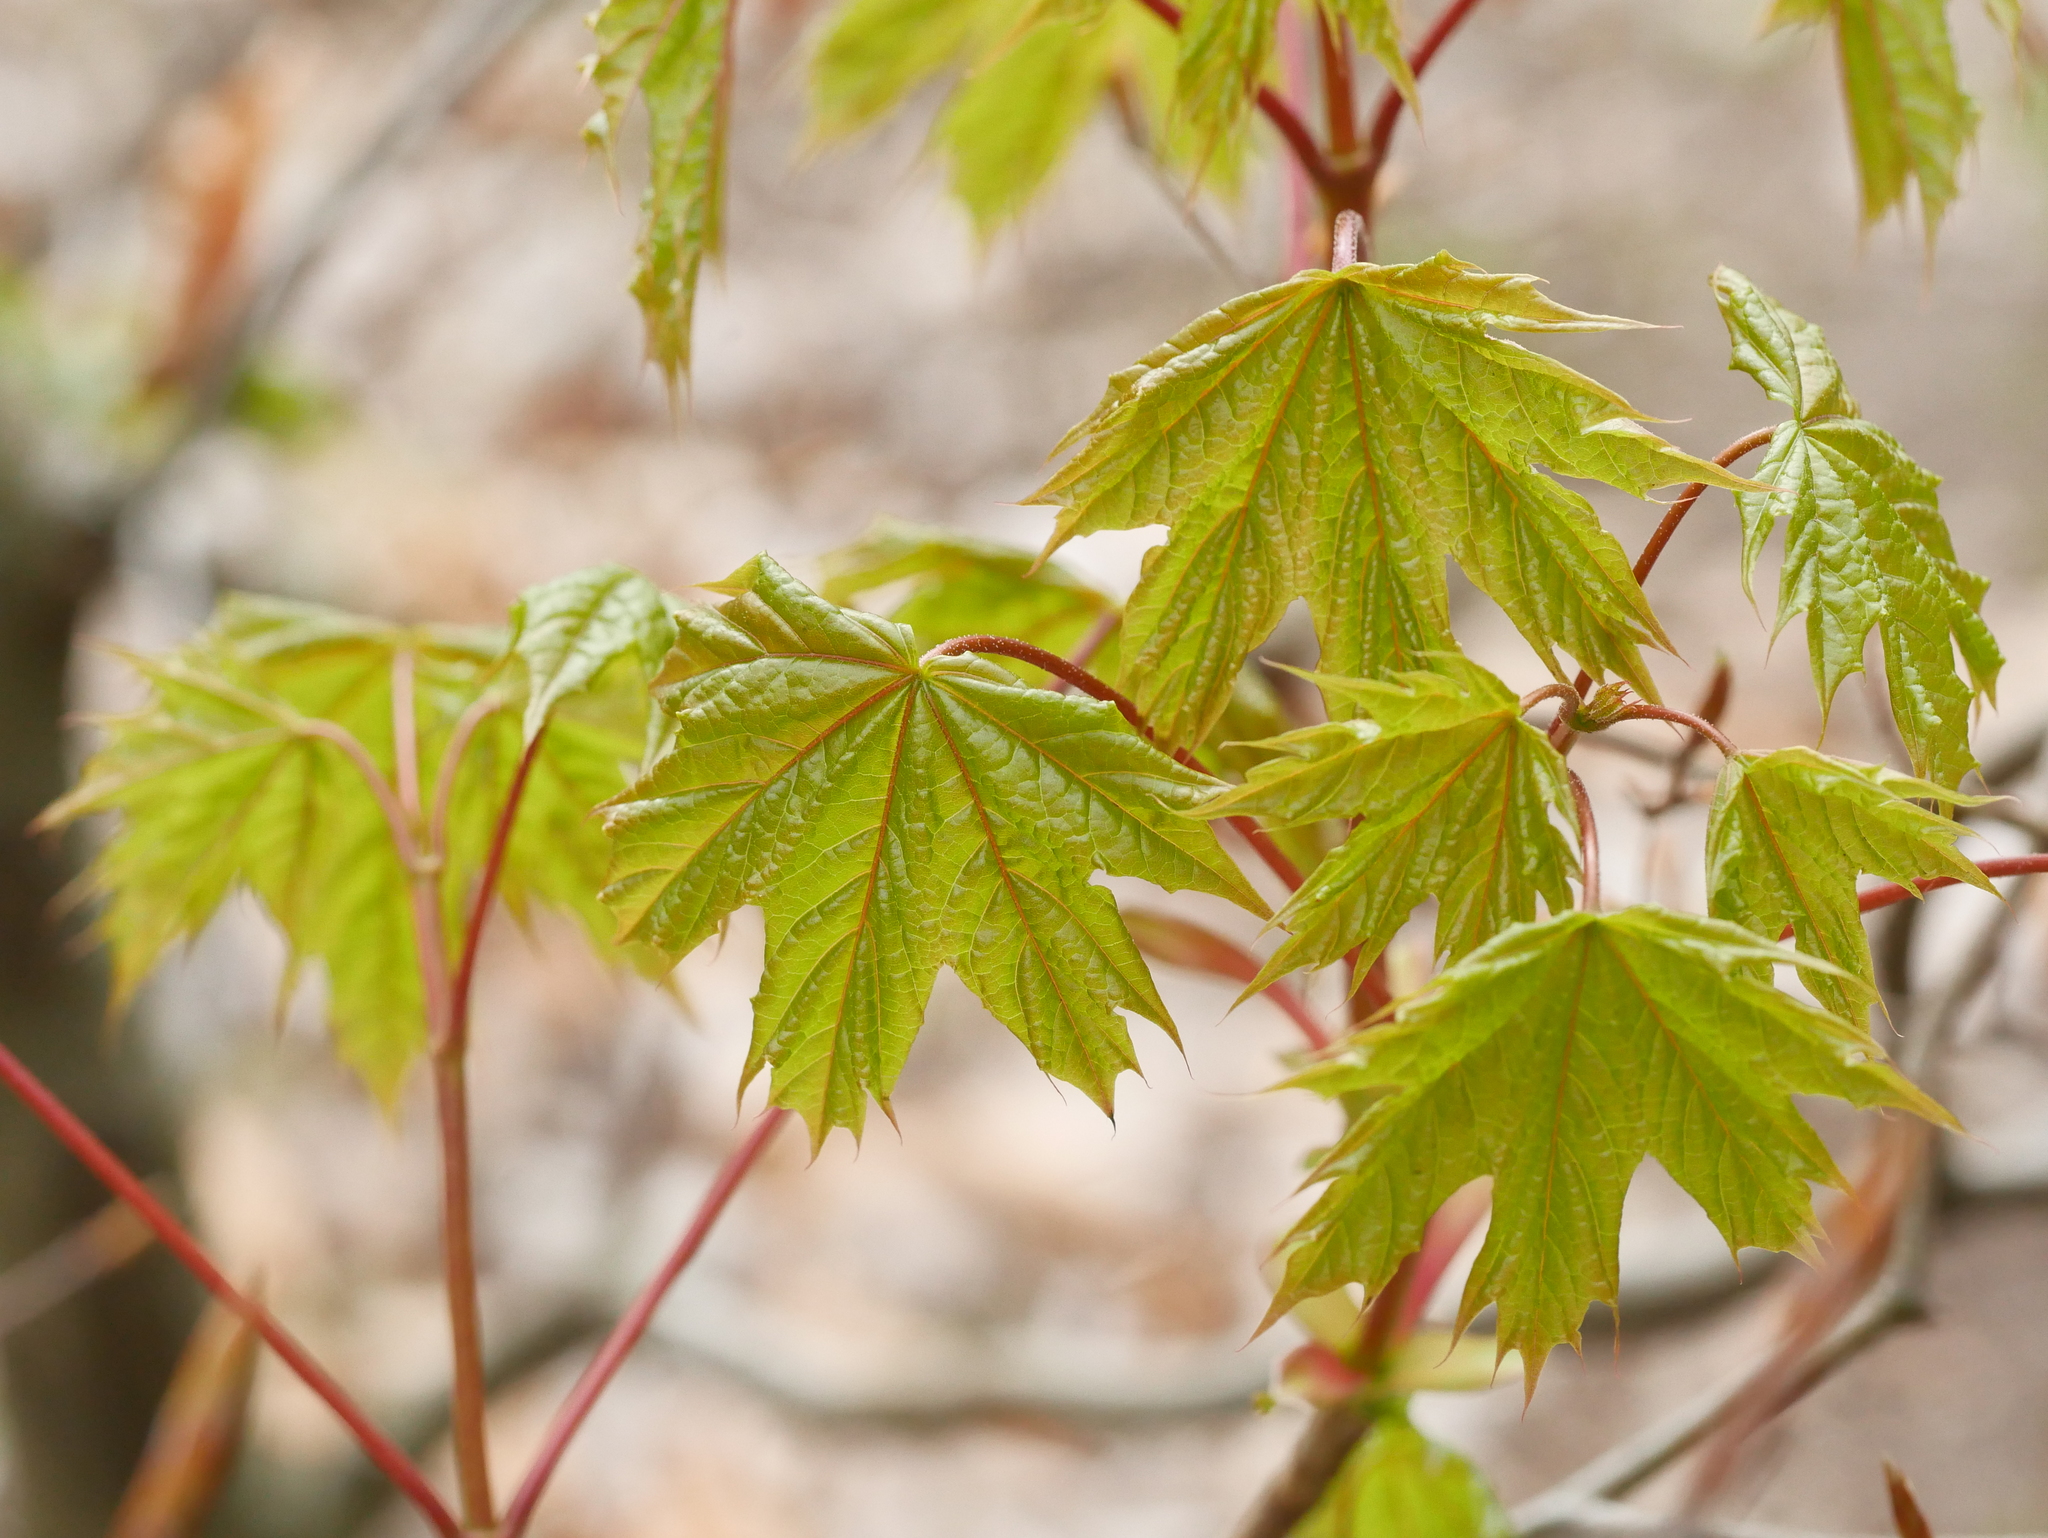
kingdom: Plantae
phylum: Tracheophyta
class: Magnoliopsida
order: Sapindales
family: Sapindaceae
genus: Acer
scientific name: Acer platanoides
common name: Norway maple
